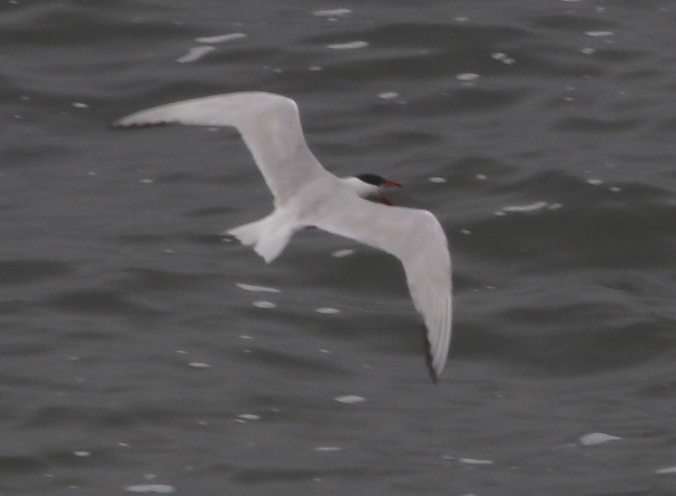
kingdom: Animalia
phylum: Chordata
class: Aves
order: Charadriiformes
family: Laridae
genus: Hydroprogne
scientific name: Hydroprogne caspia
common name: Caspian tern
